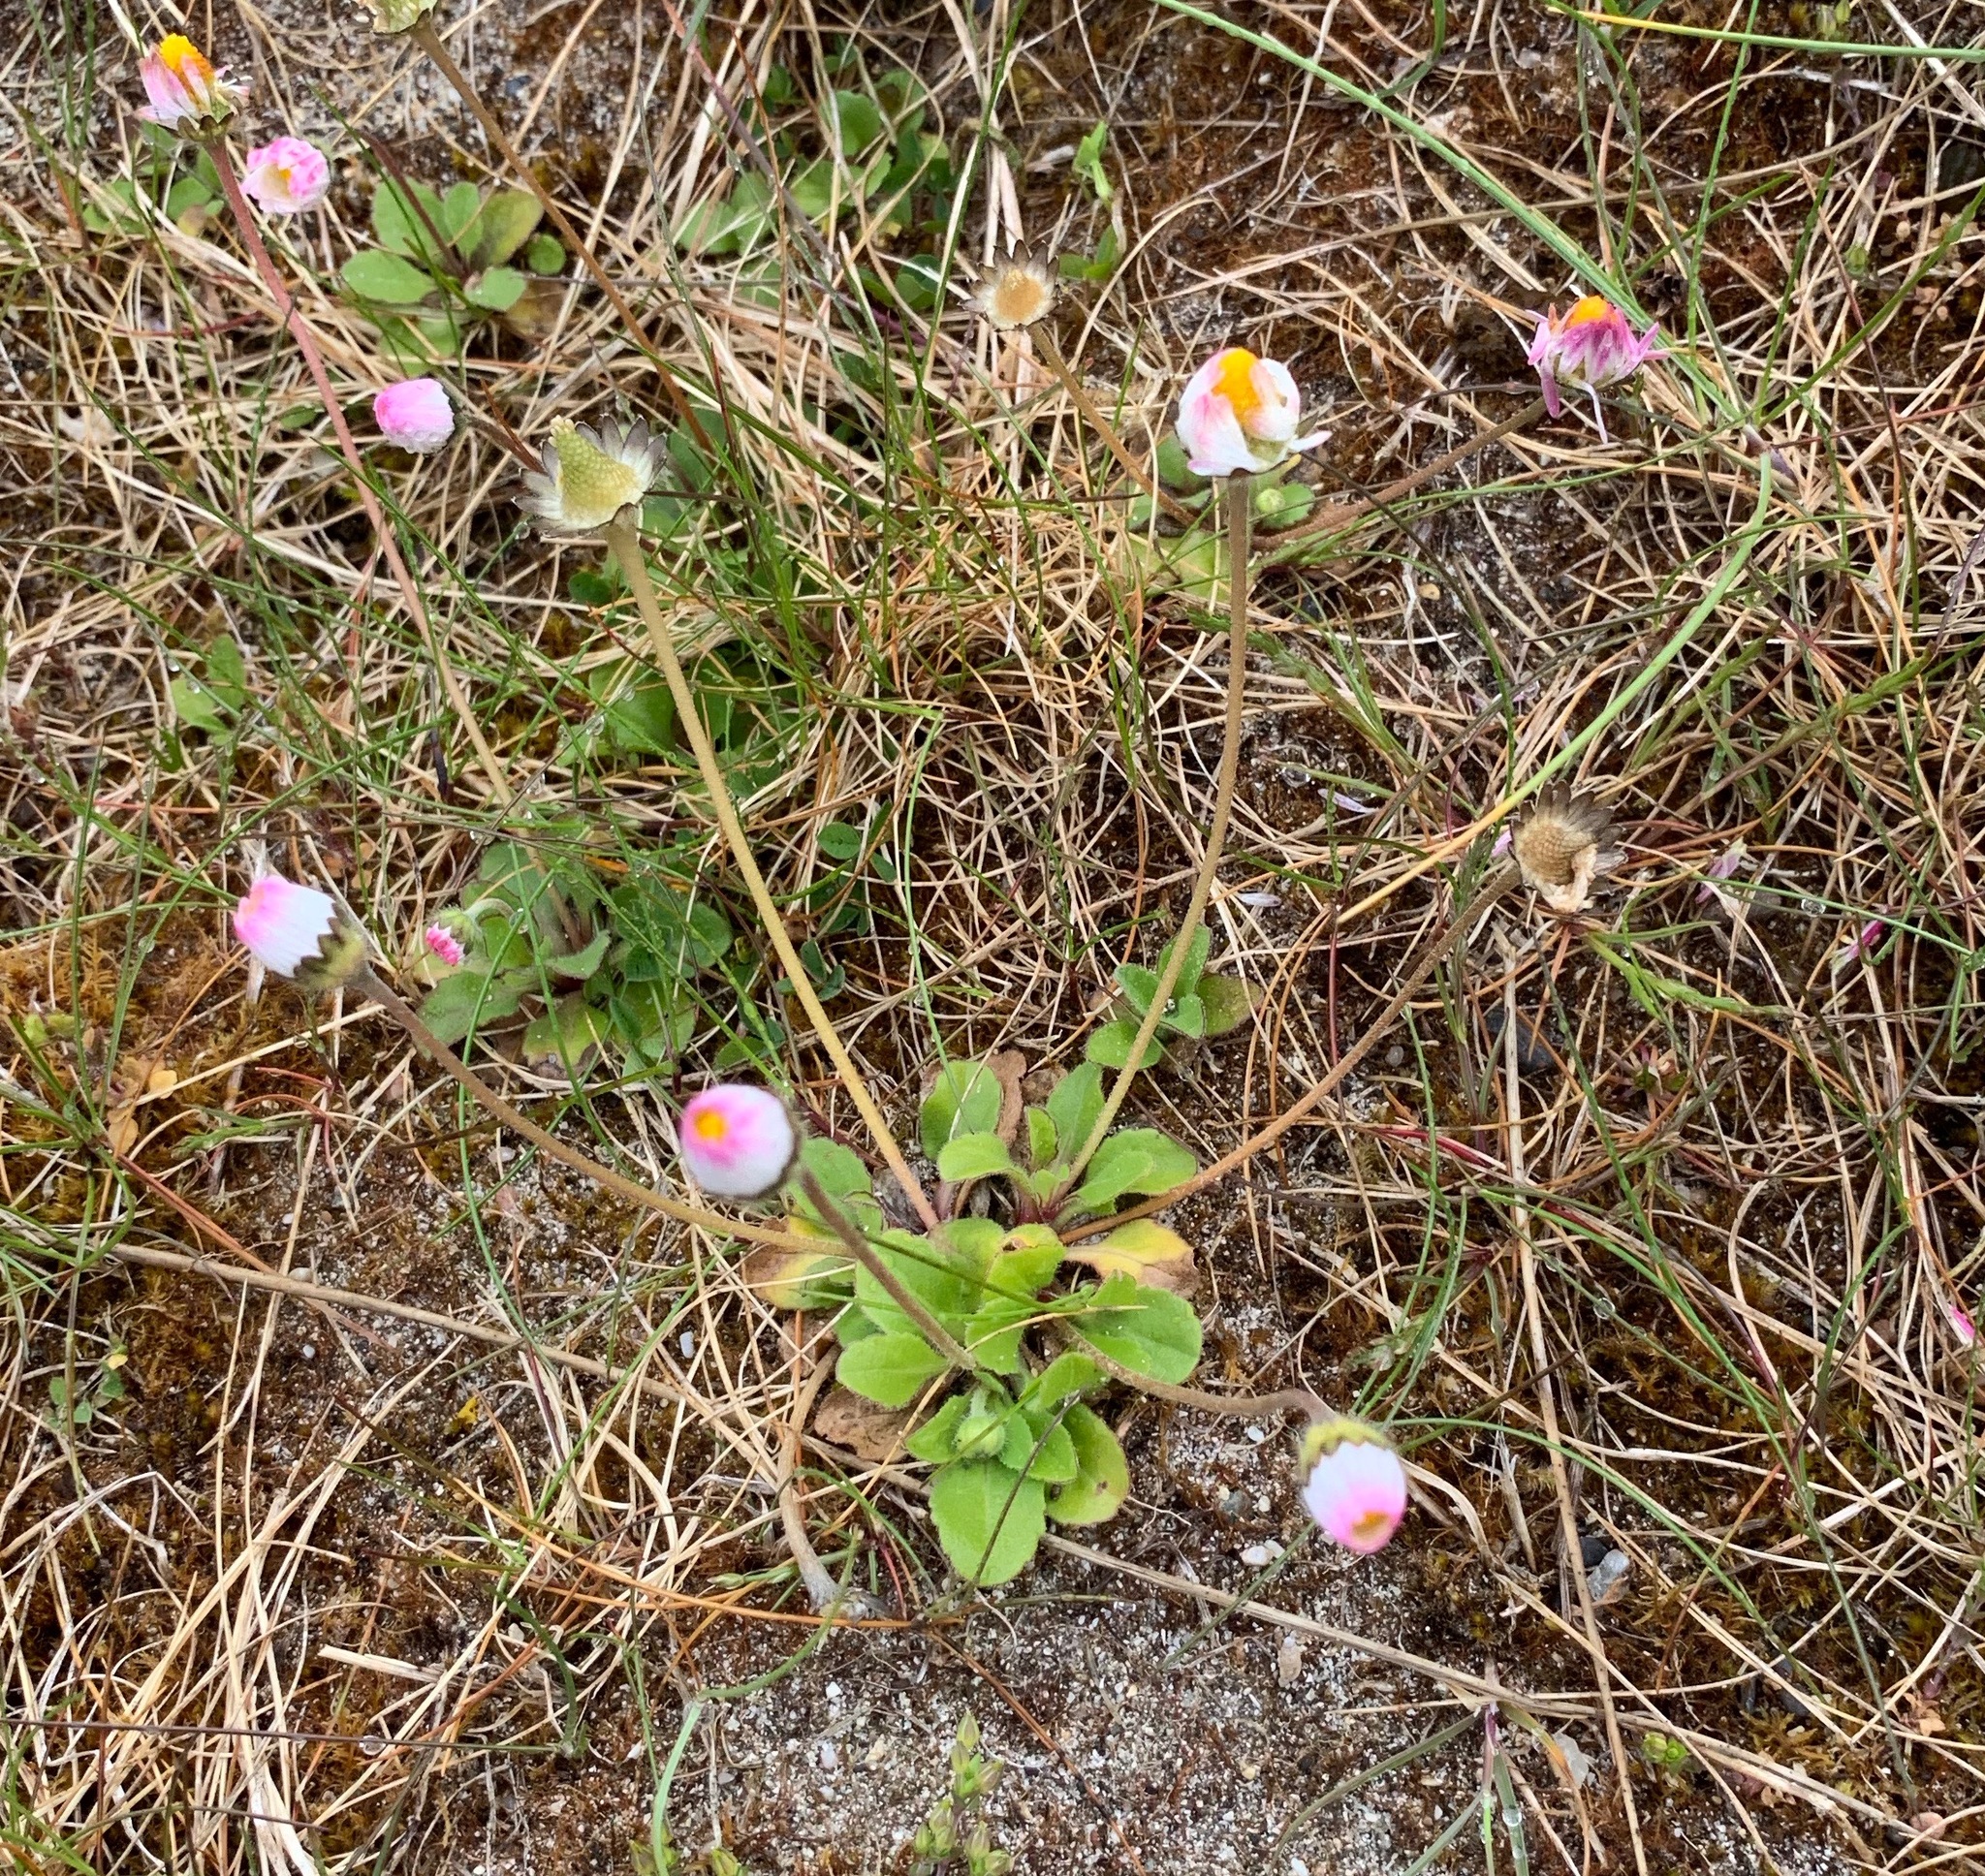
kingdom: Plantae
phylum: Tracheophyta
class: Magnoliopsida
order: Asterales
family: Asteraceae
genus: Bellis
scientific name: Bellis perennis
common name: Lawndaisy
